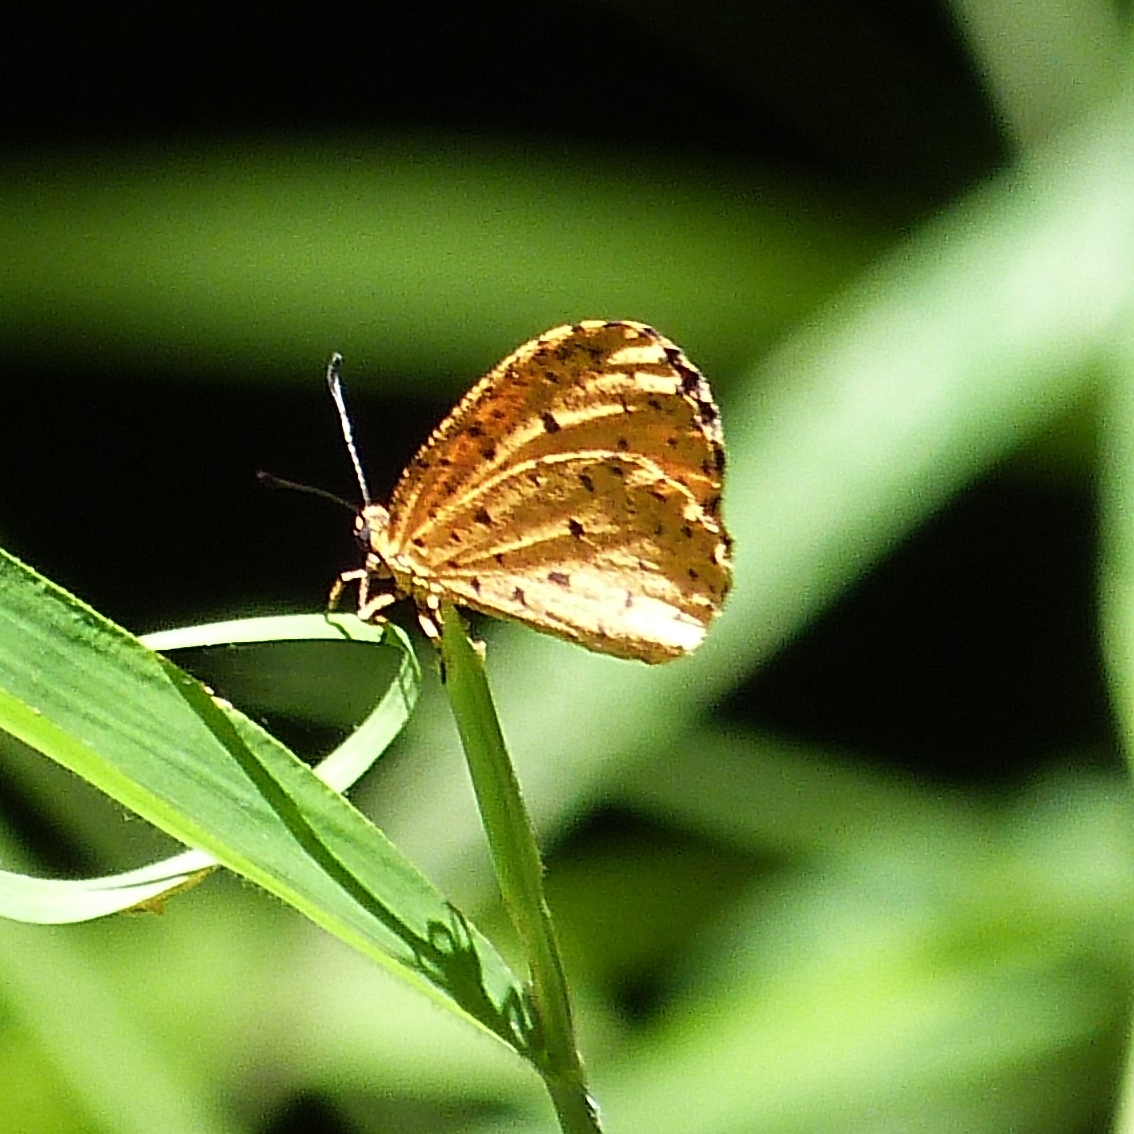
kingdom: Animalia
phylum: Arthropoda
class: Insecta
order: Lepidoptera
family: Lycaenidae
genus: Pentila
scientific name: Pentila tropicalis
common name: Spotted buff
